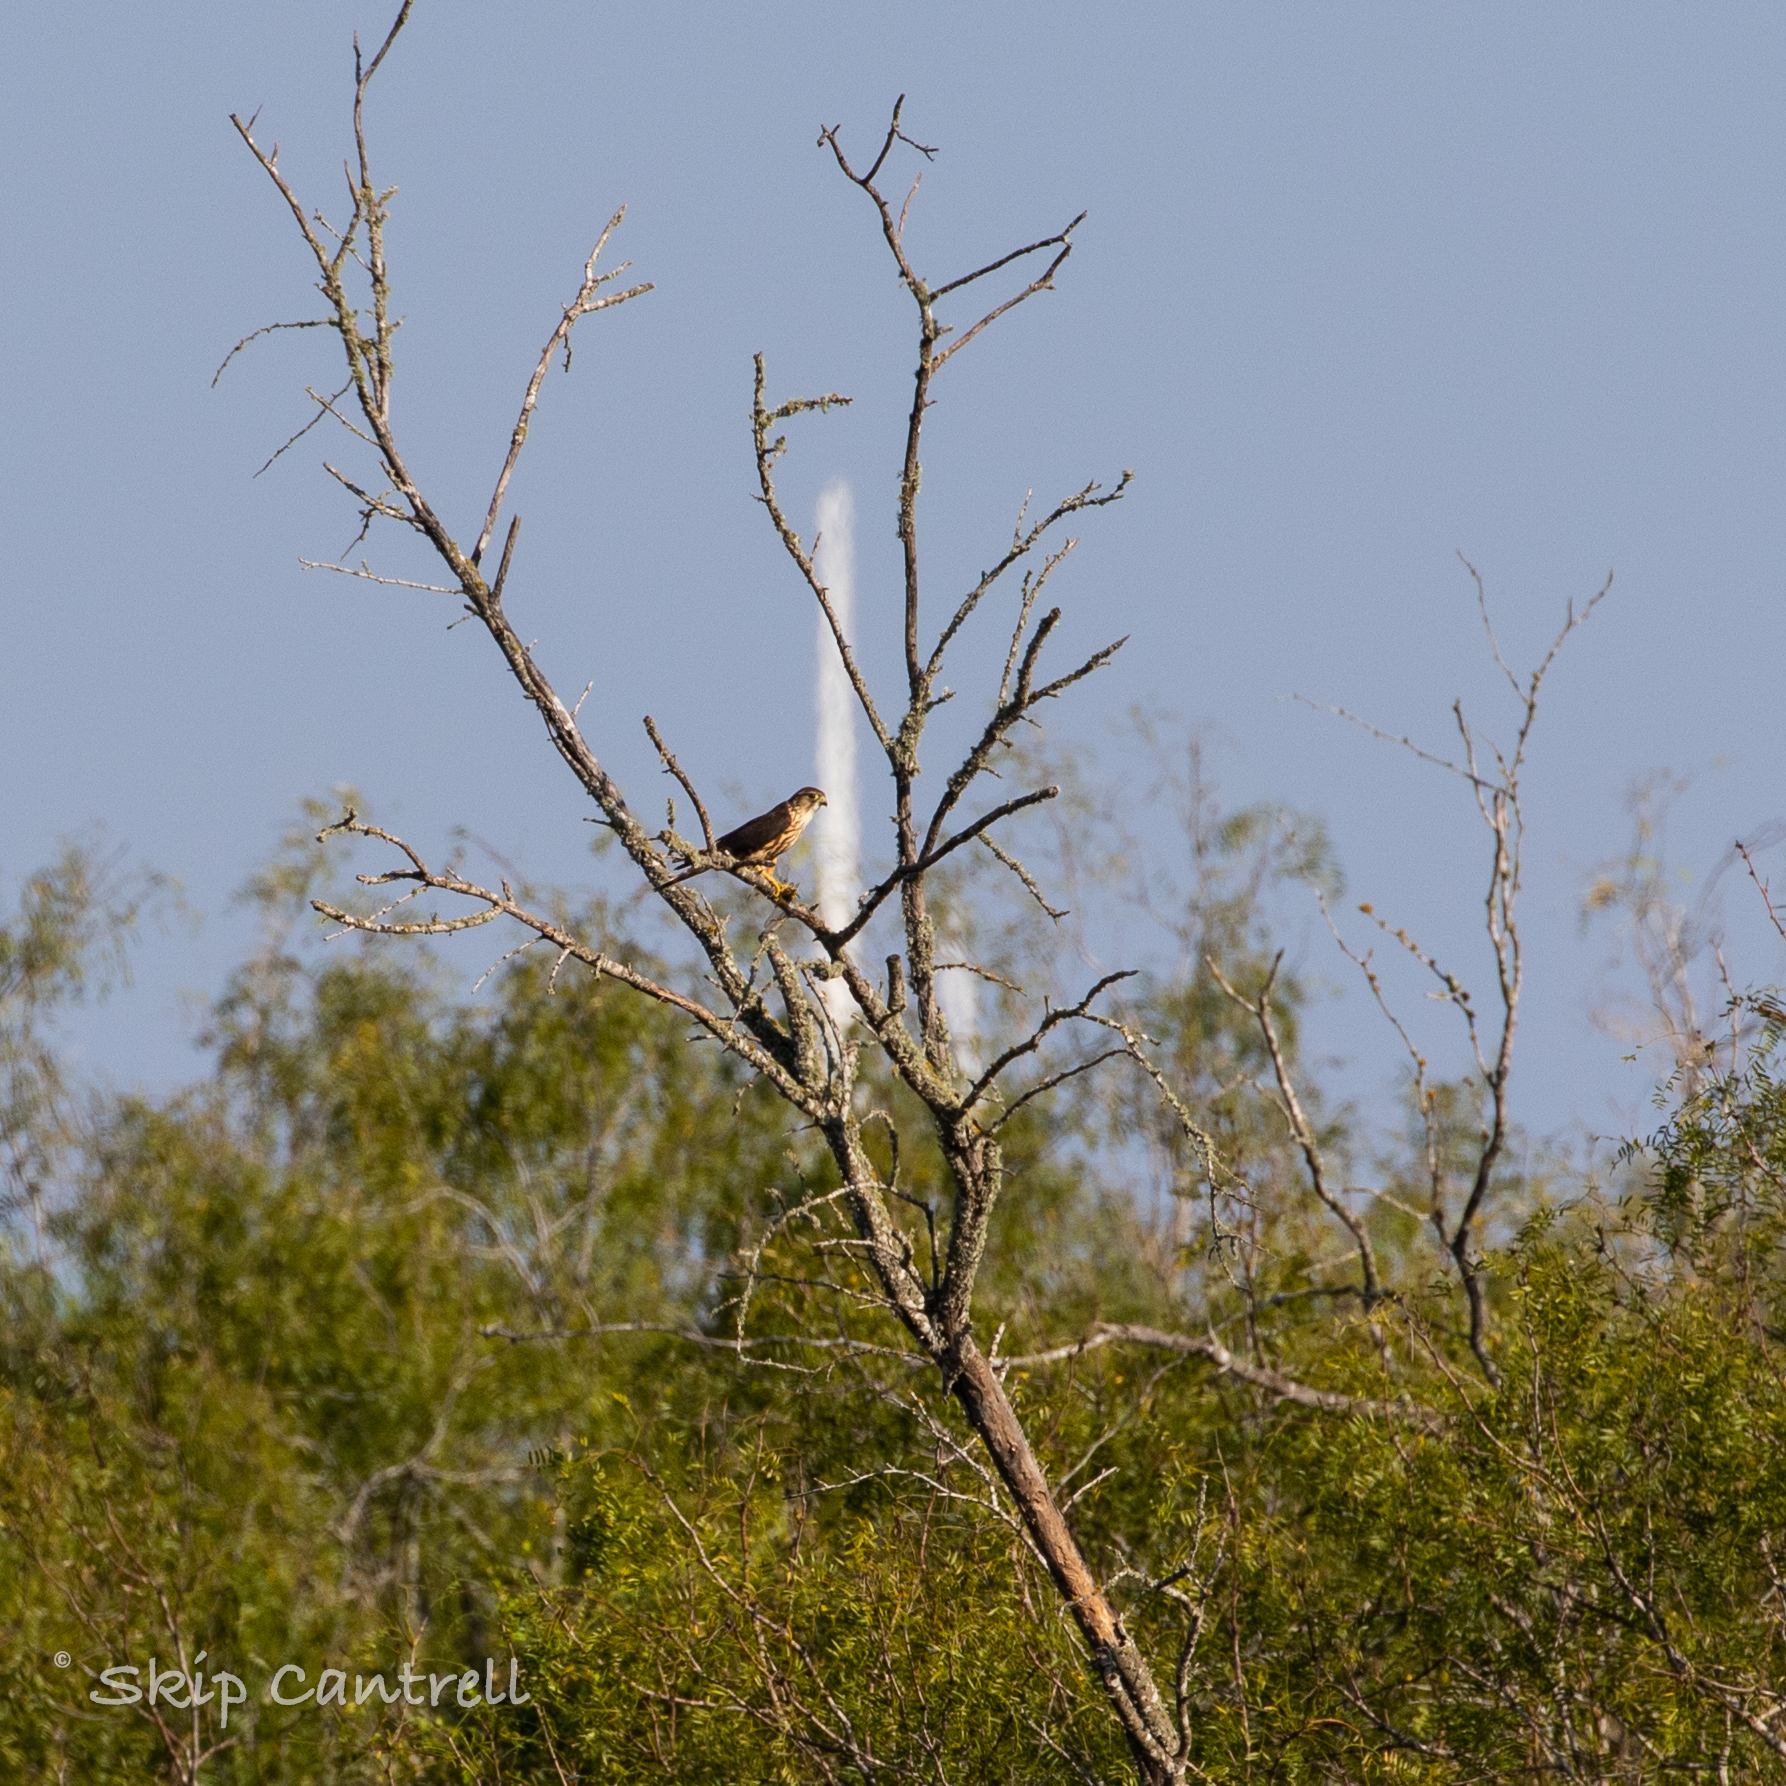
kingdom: Animalia
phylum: Chordata
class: Aves
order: Falconiformes
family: Falconidae
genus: Falco
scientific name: Falco columbarius
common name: Merlin
